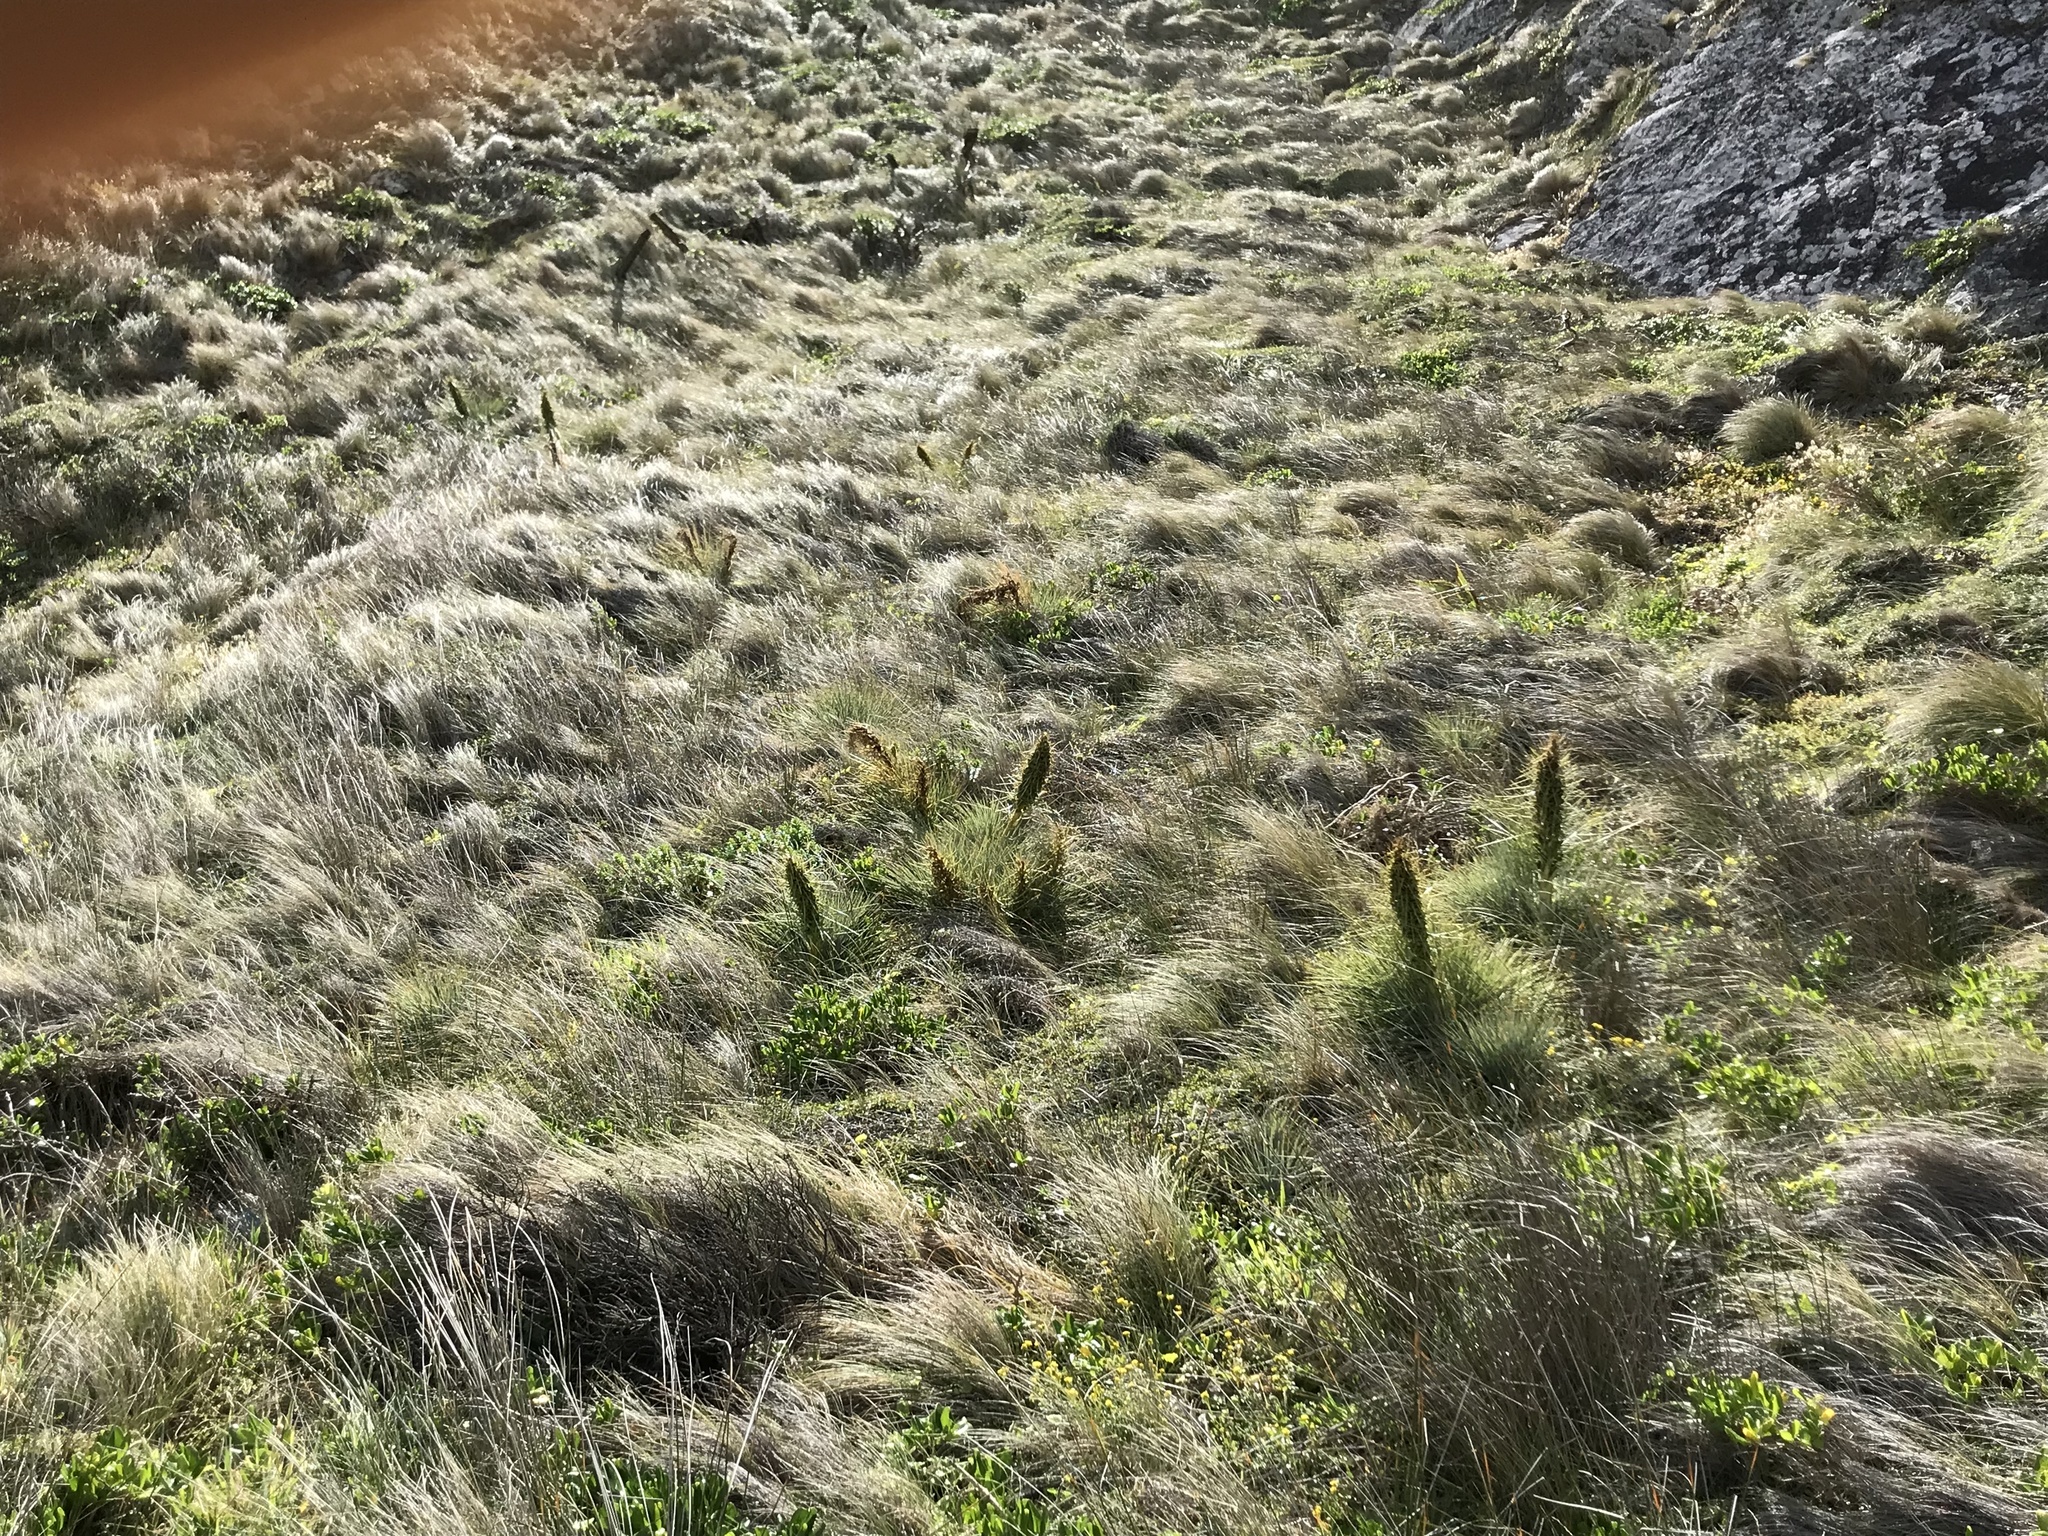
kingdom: Plantae
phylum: Tracheophyta
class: Magnoliopsida
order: Apiales
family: Apiaceae
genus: Aciphylla
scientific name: Aciphylla squarrosa
